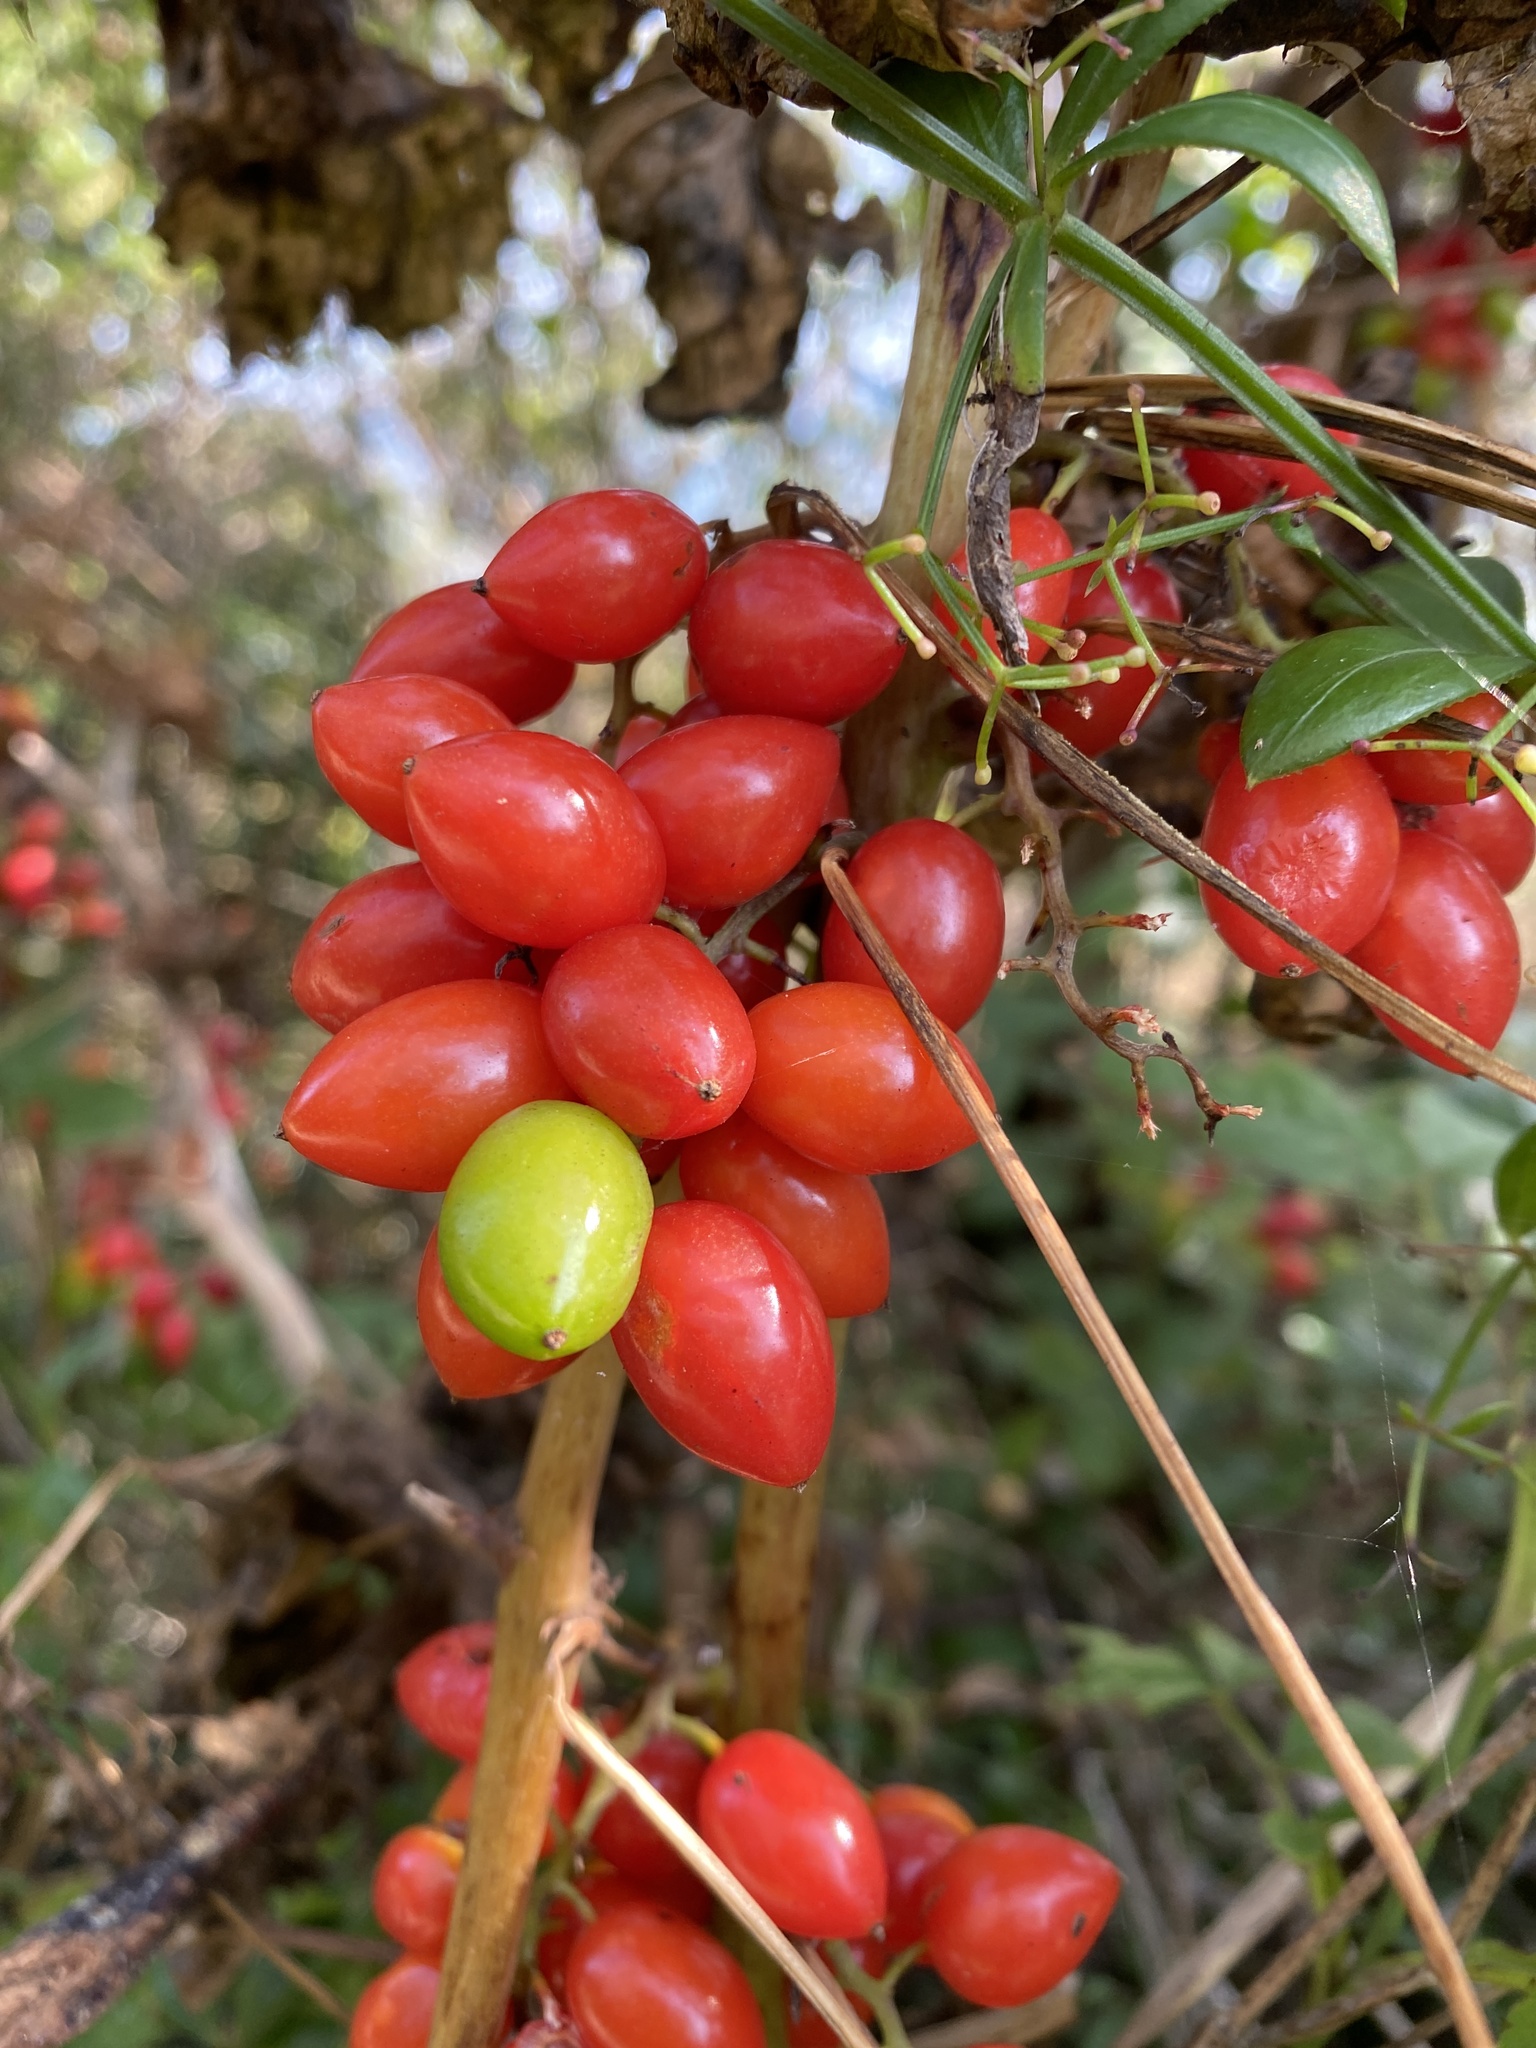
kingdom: Plantae
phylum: Tracheophyta
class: Liliopsida
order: Dioscoreales
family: Dioscoreaceae
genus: Dioscorea
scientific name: Dioscorea communis
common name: Black-bindweed
